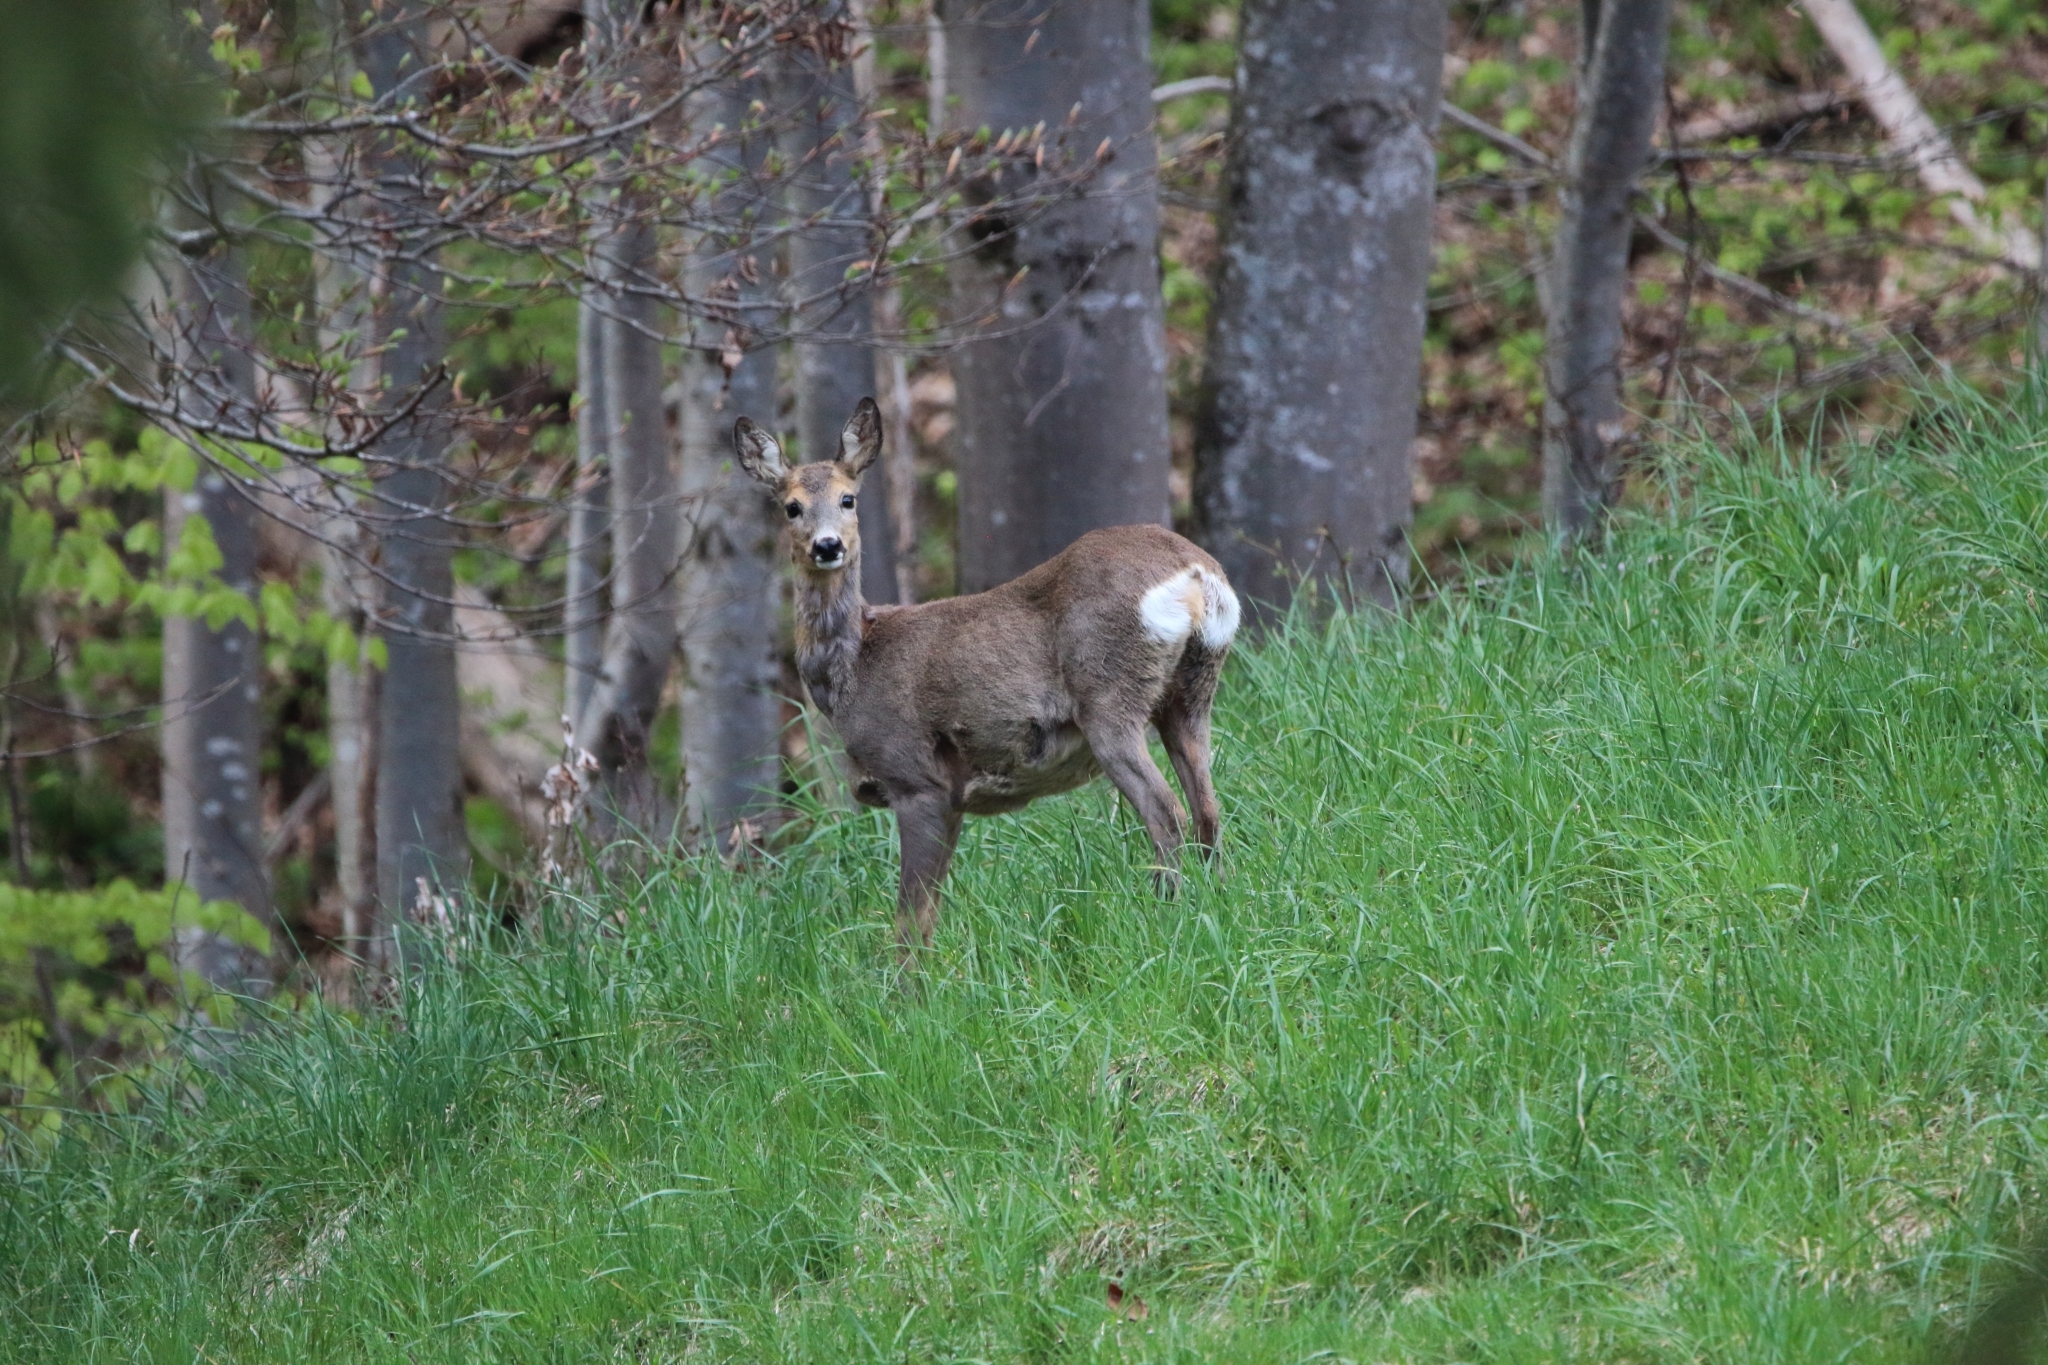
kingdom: Animalia
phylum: Chordata
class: Mammalia
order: Artiodactyla
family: Cervidae
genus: Capreolus
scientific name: Capreolus capreolus
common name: Western roe deer
